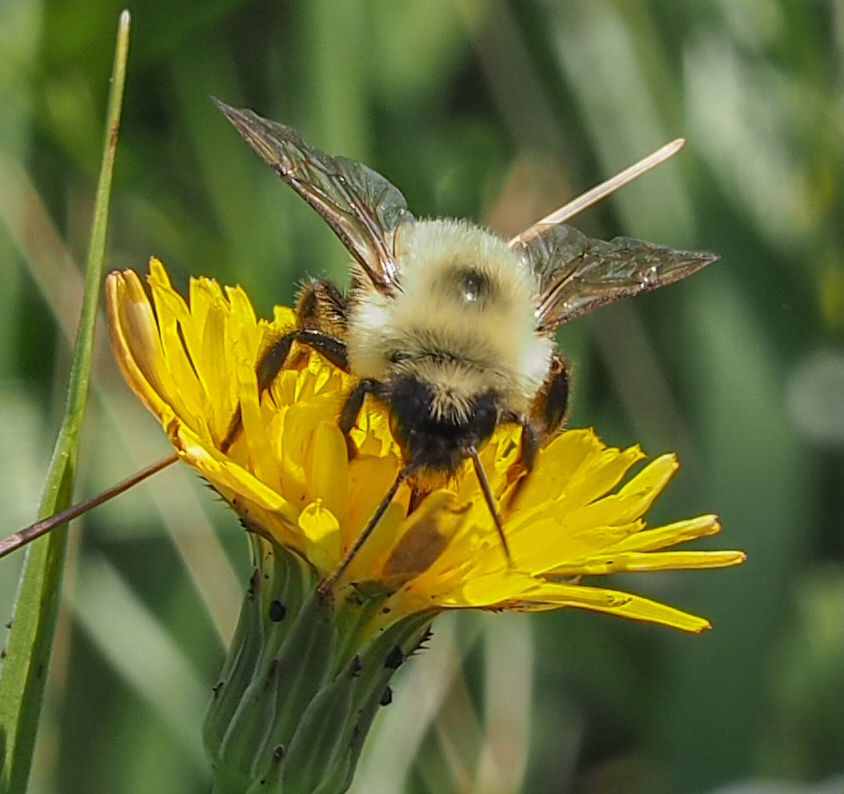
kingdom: Animalia
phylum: Arthropoda
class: Insecta
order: Hymenoptera
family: Apidae
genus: Bombus
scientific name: Bombus bimaculatus
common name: Two-spotted bumble bee
